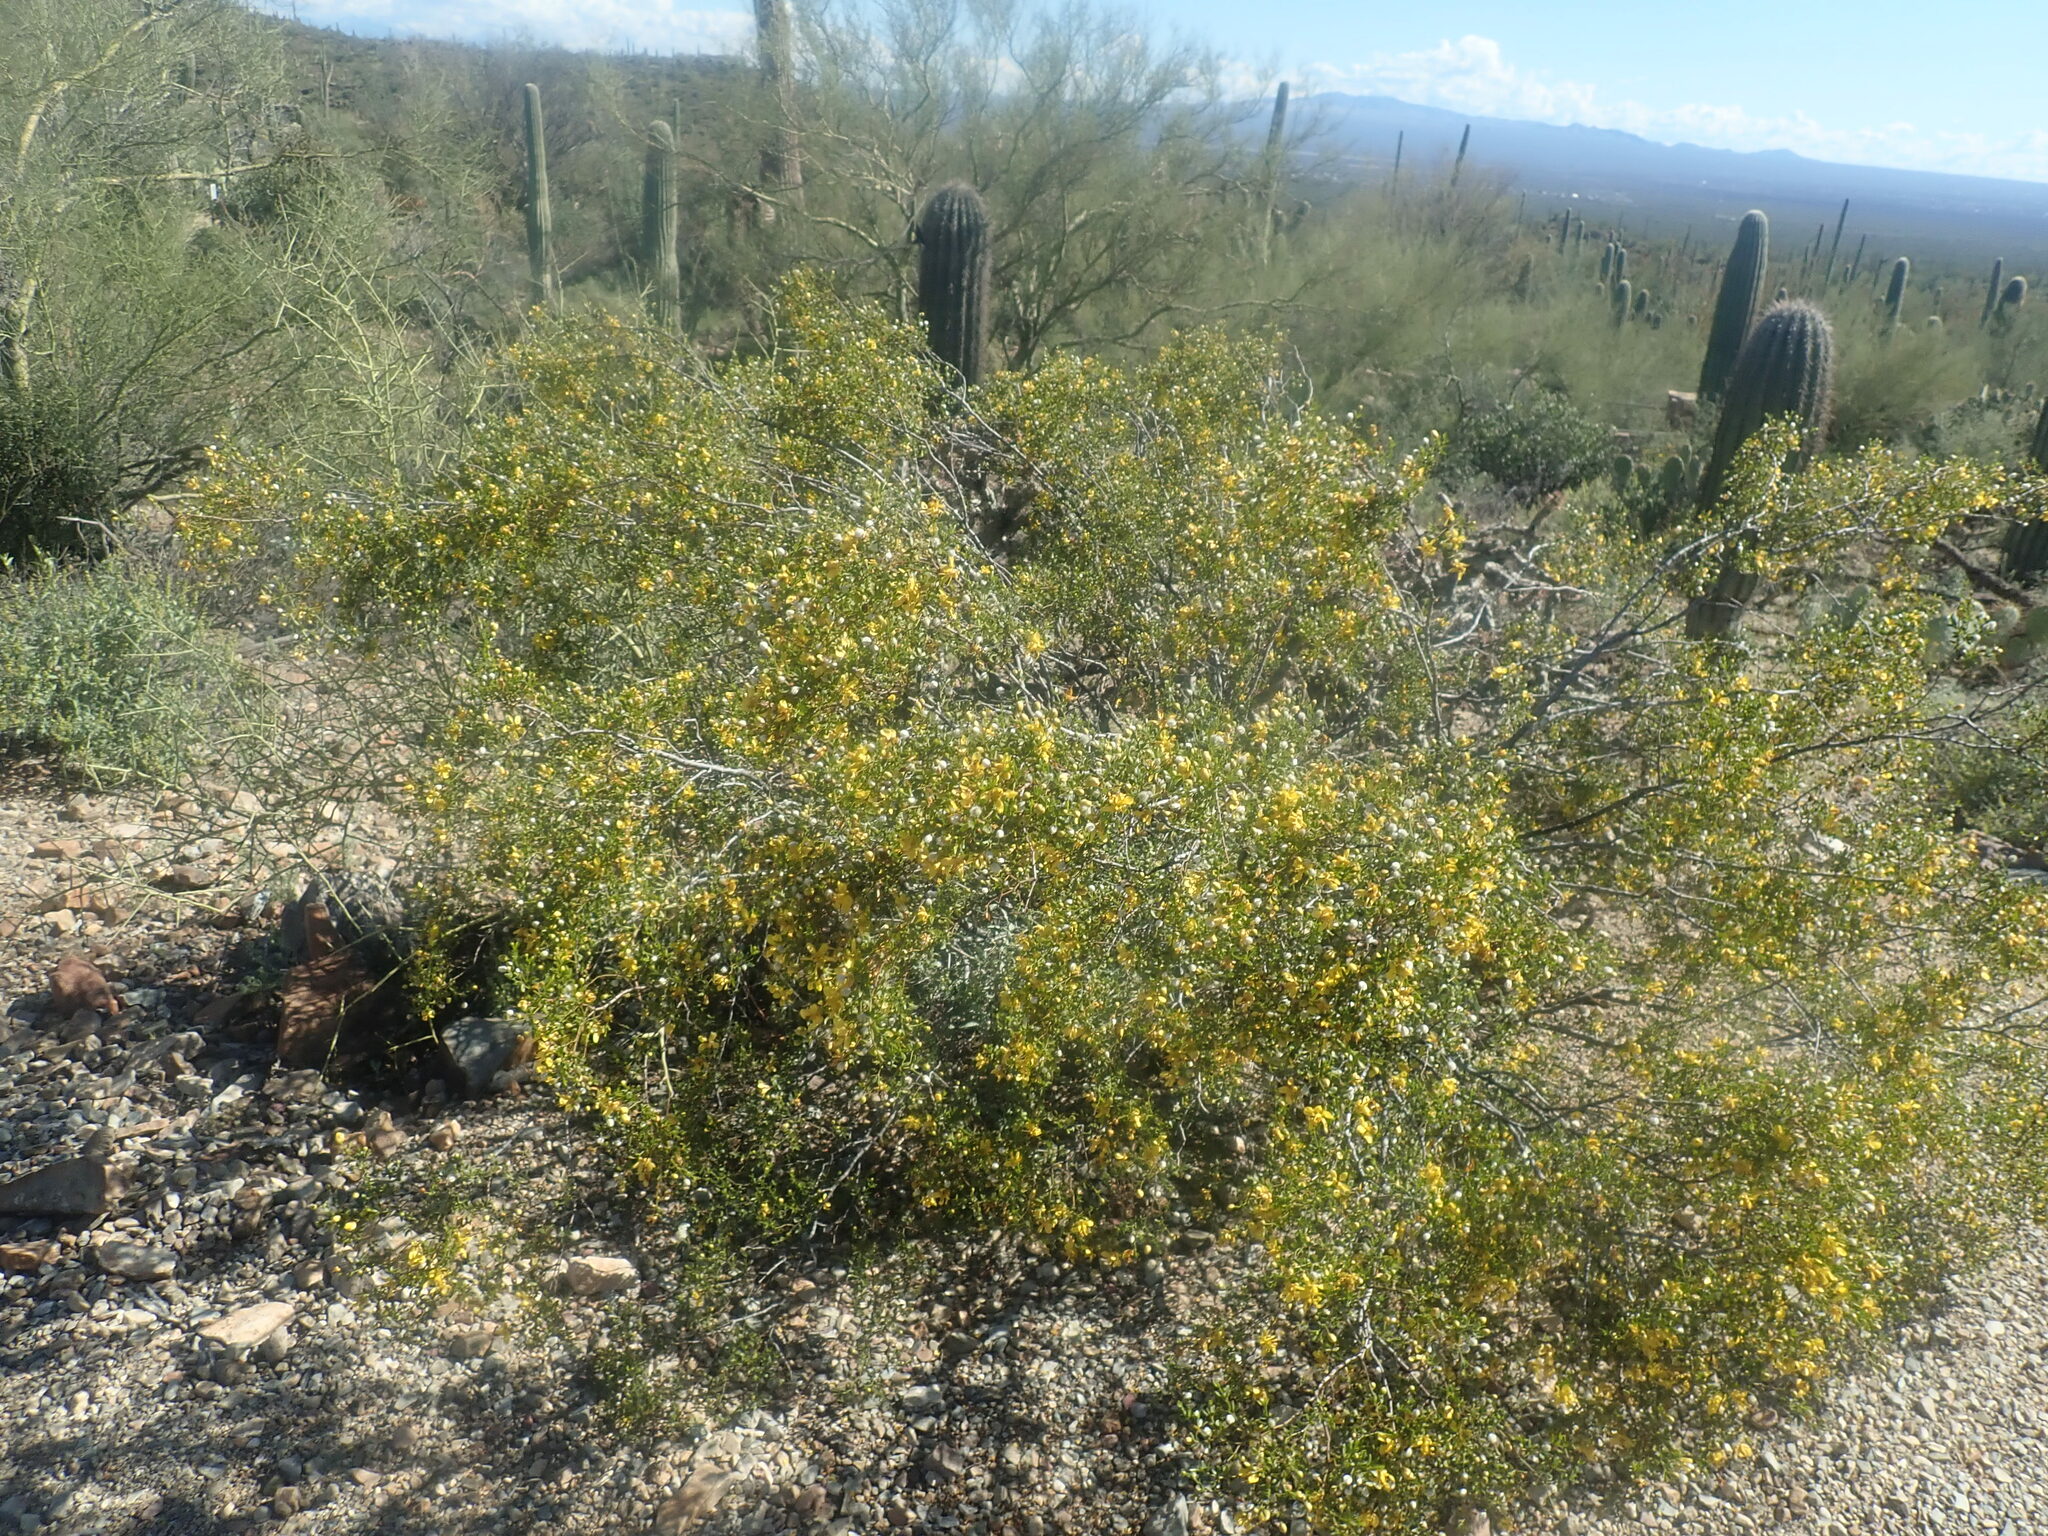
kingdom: Plantae
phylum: Tracheophyta
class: Magnoliopsida
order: Zygophyllales
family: Zygophyllaceae
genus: Larrea
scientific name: Larrea tridentata
